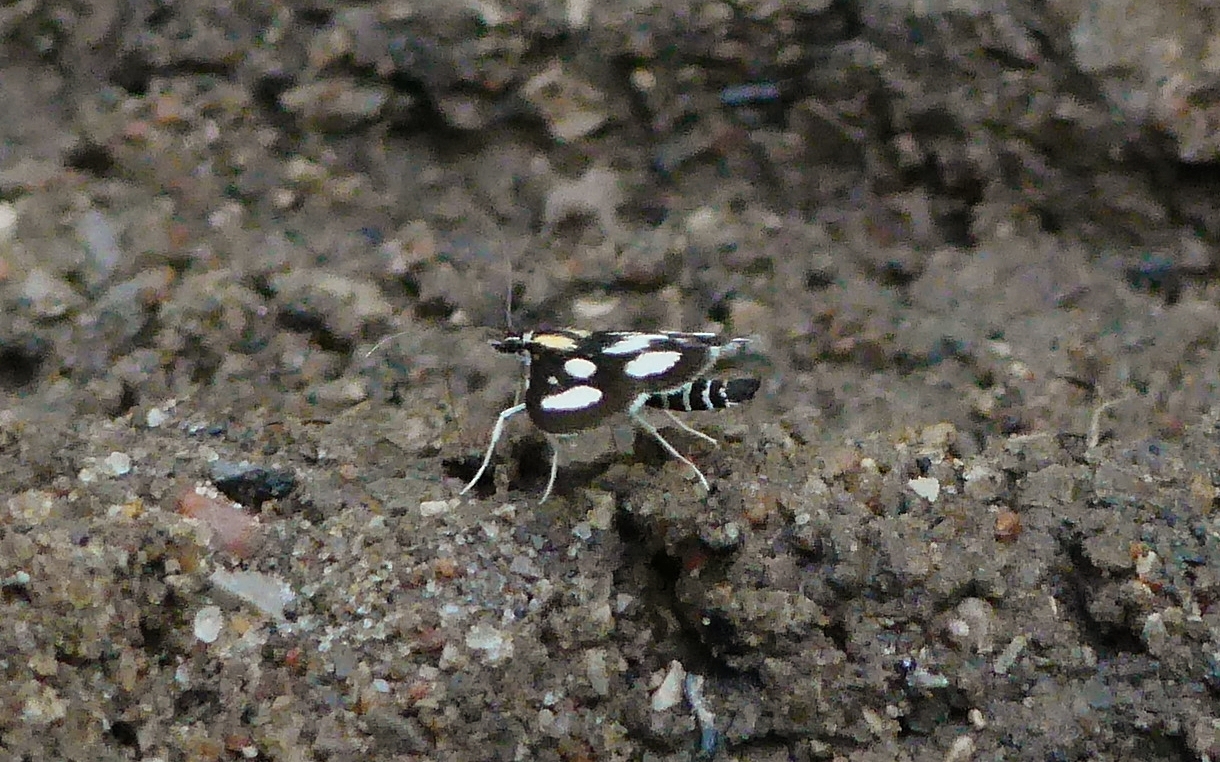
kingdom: Animalia
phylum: Arthropoda
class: Insecta
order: Lepidoptera
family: Crambidae
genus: Anania
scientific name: Anania funebris
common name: White-spotted sable moth
